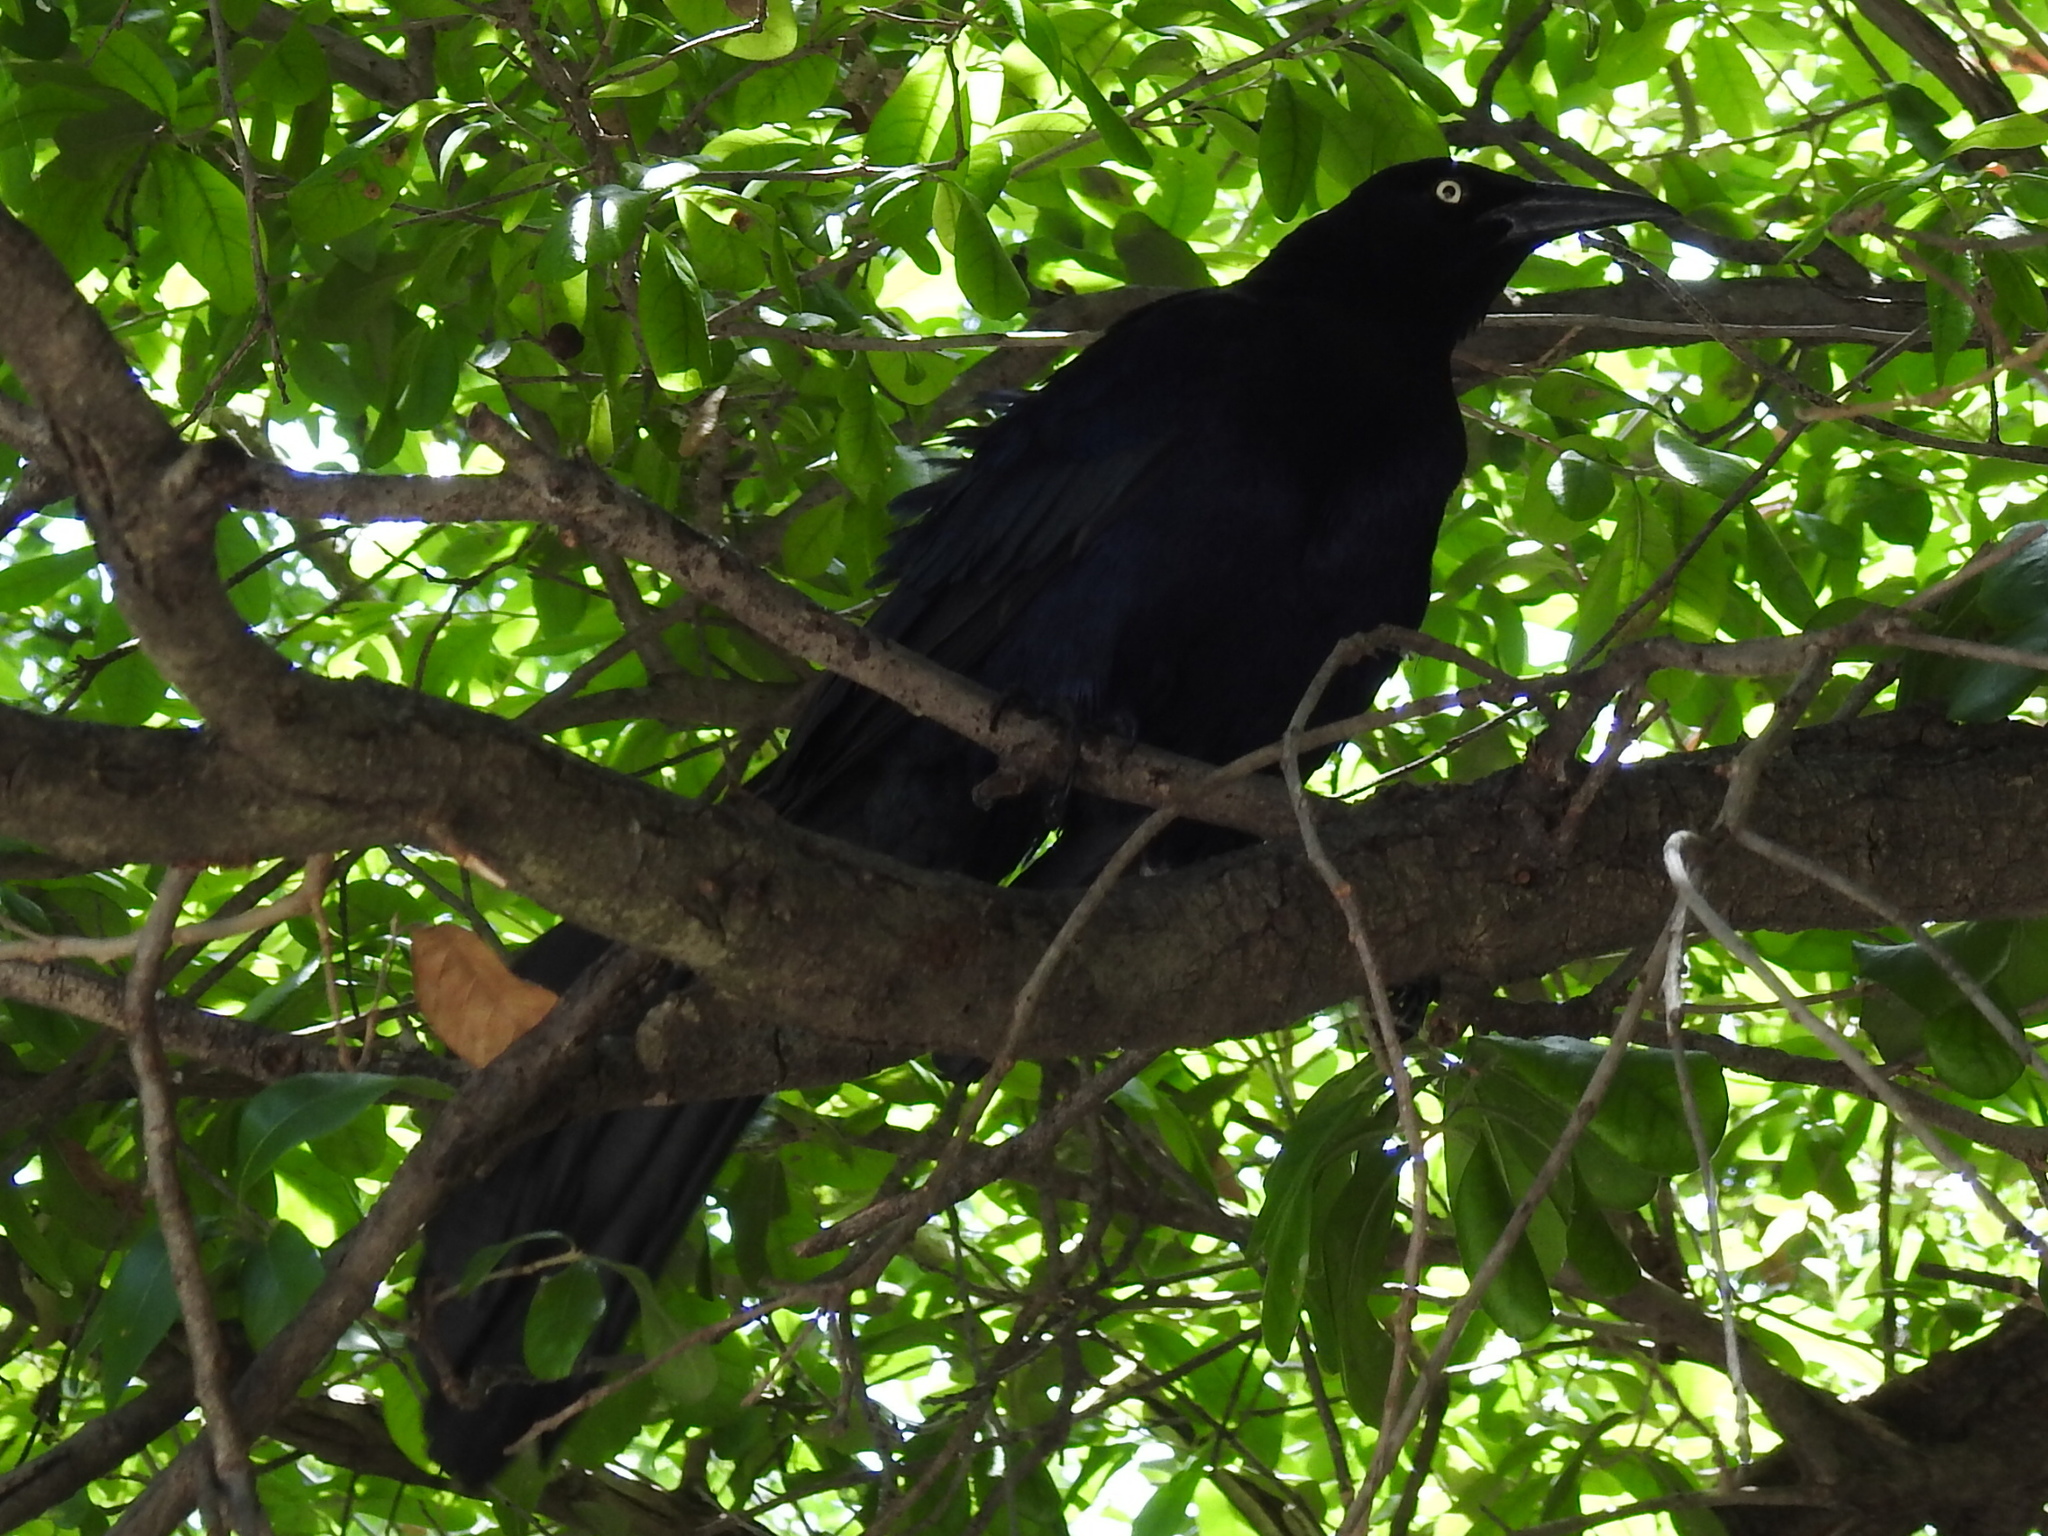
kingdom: Animalia
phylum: Chordata
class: Aves
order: Passeriformes
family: Icteridae
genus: Quiscalus
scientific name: Quiscalus mexicanus
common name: Great-tailed grackle
